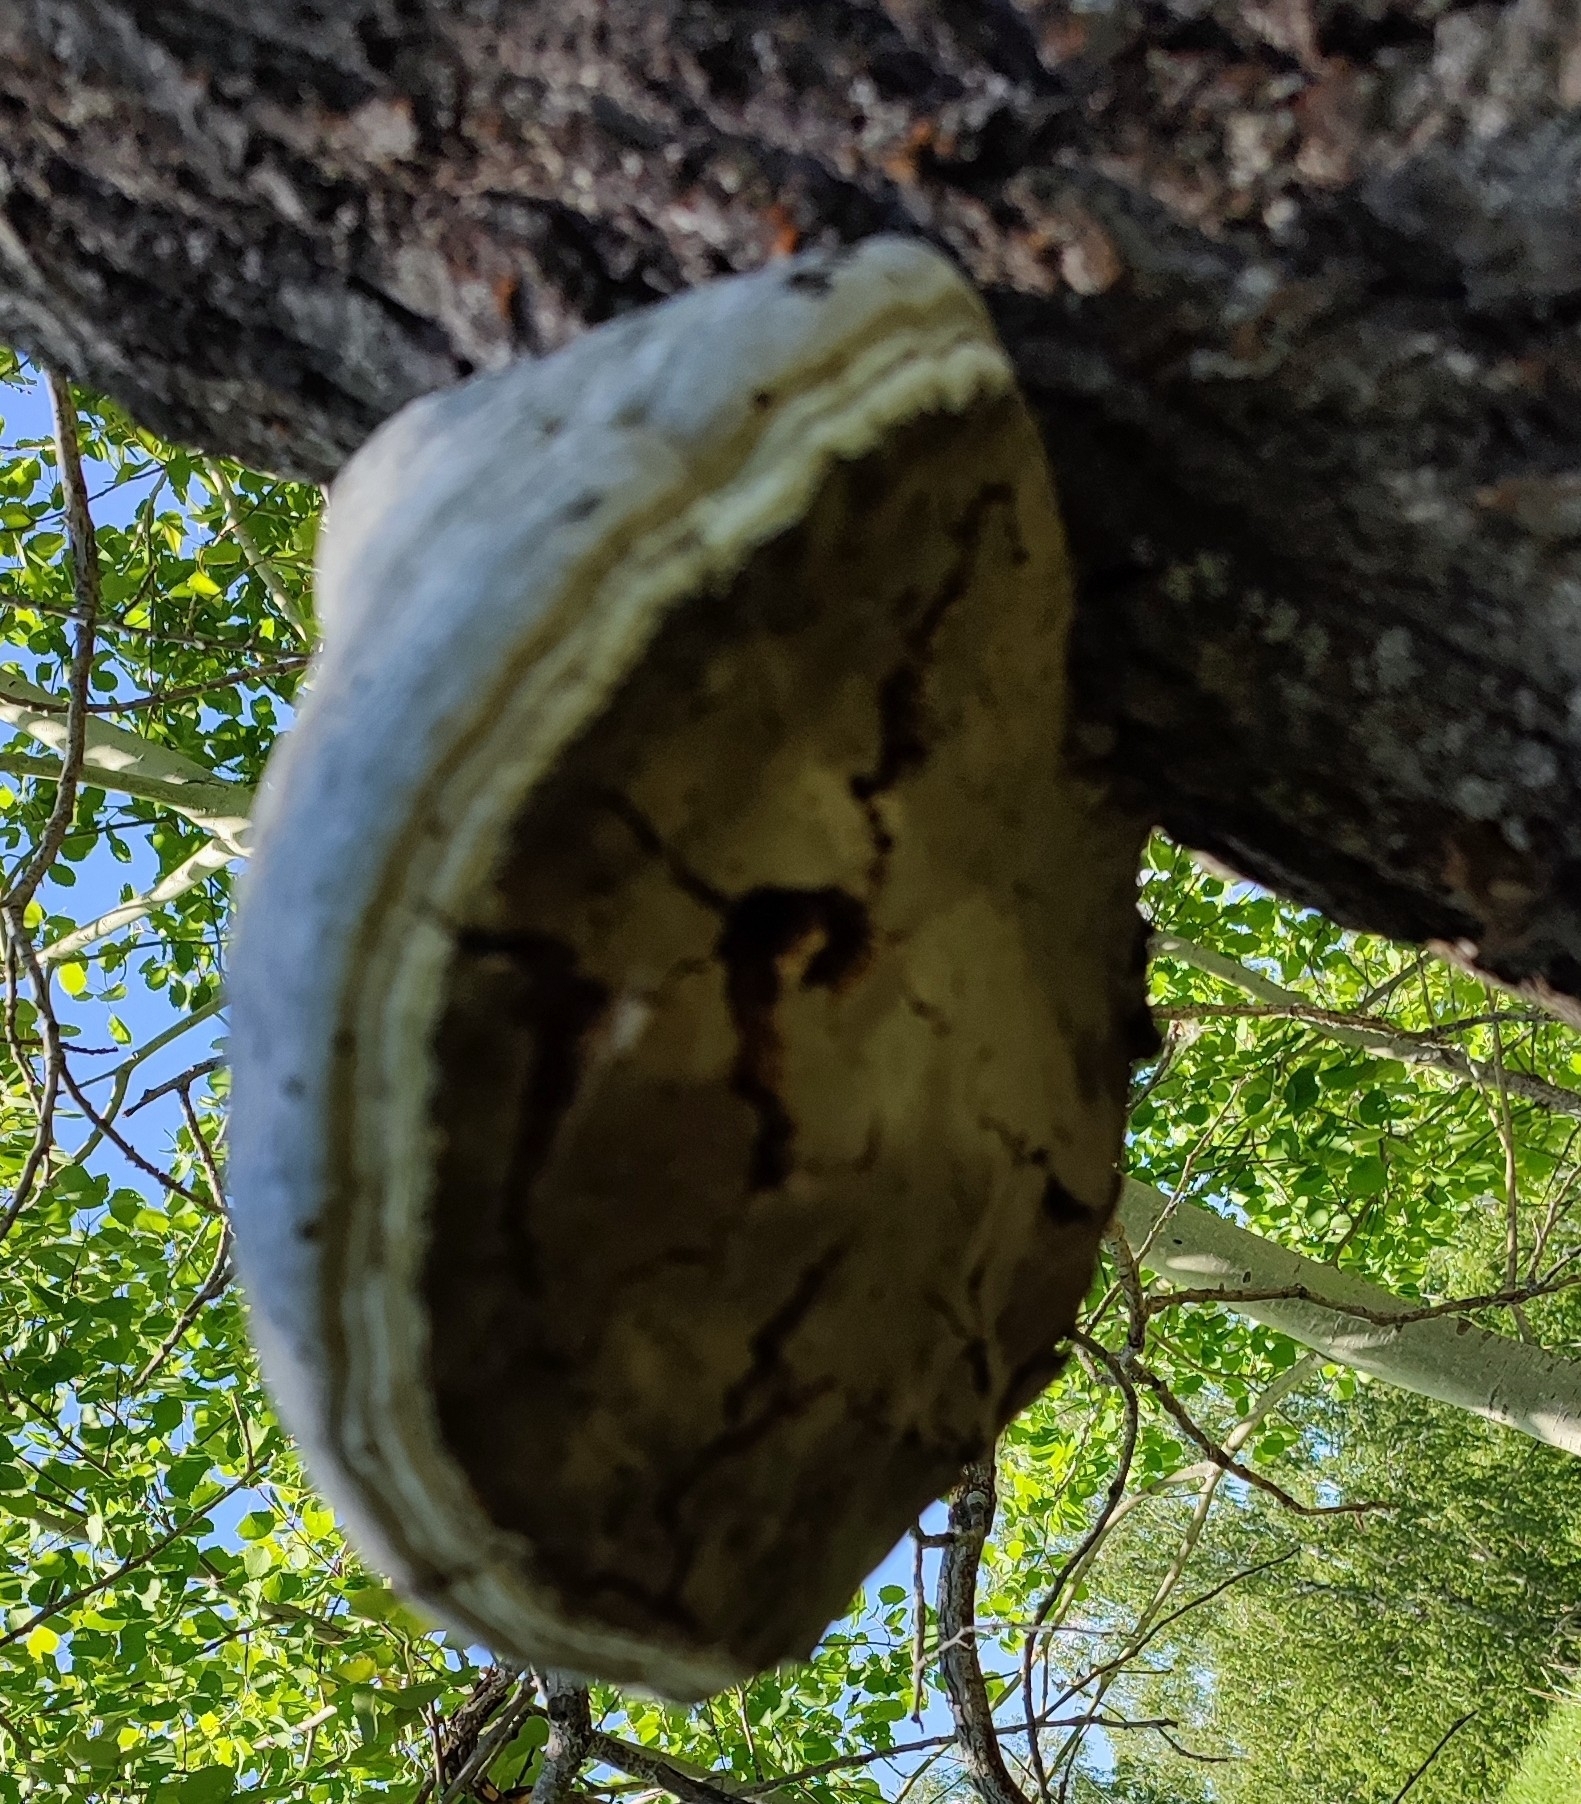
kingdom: Fungi
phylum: Basidiomycota
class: Agaricomycetes
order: Polyporales
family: Polyporaceae
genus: Fomes
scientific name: Fomes fomentarius
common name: Hoof fungus
